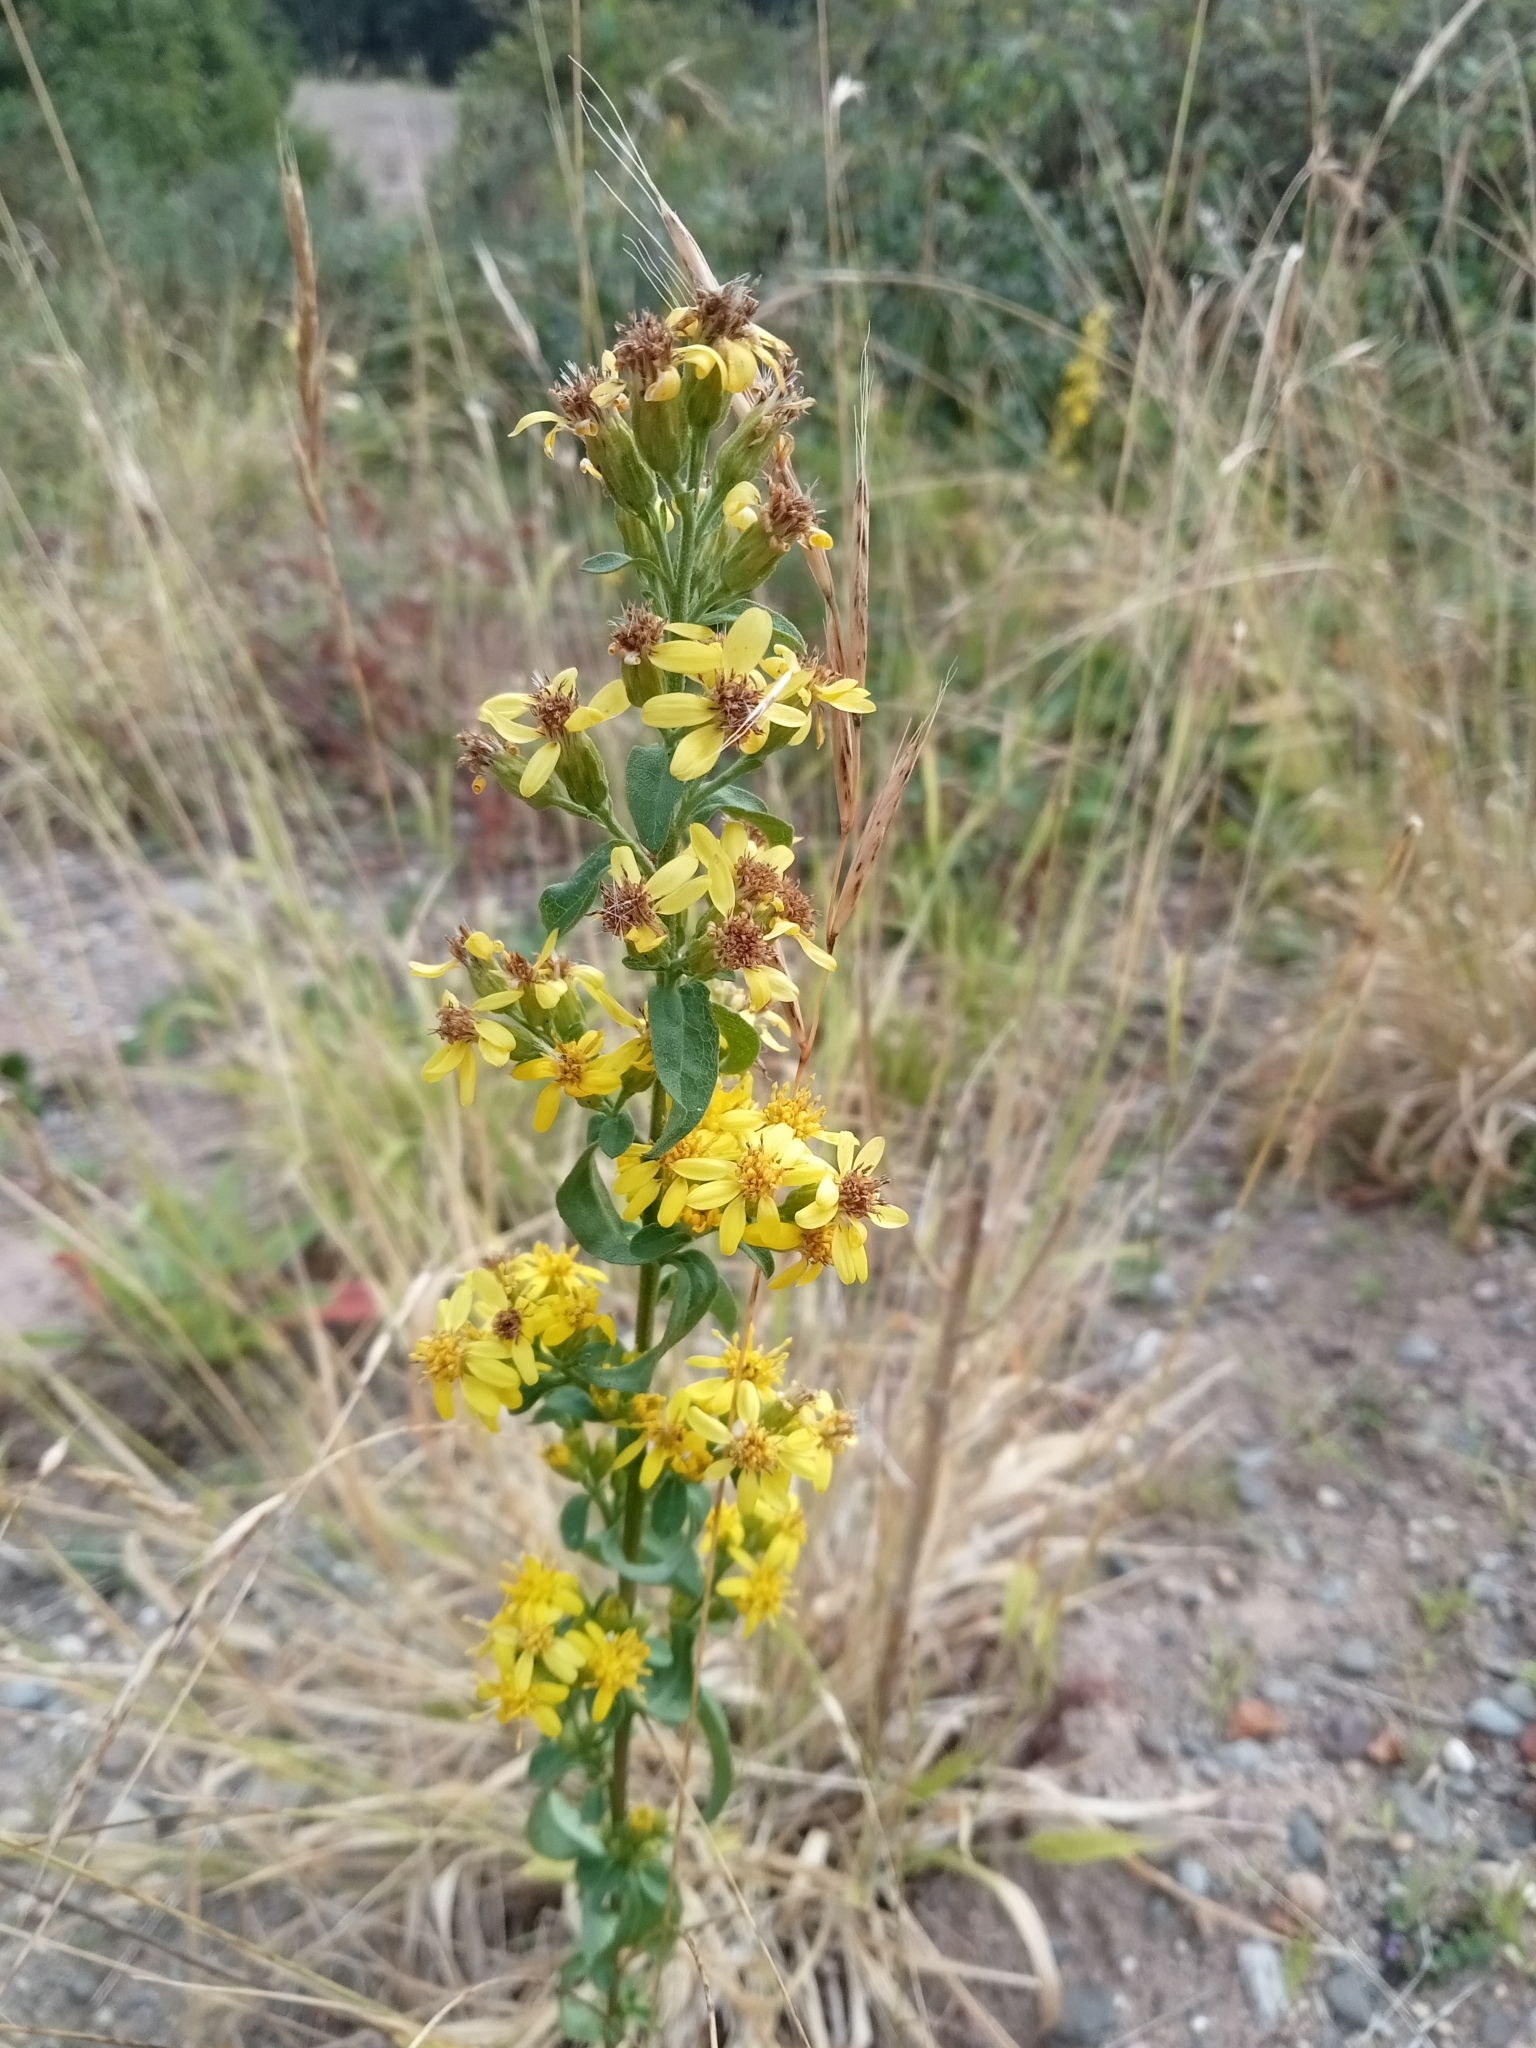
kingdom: Plantae
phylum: Tracheophyta
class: Magnoliopsida
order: Asterales
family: Asteraceae
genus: Solidago
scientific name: Solidago virgaurea
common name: Goldenrod
